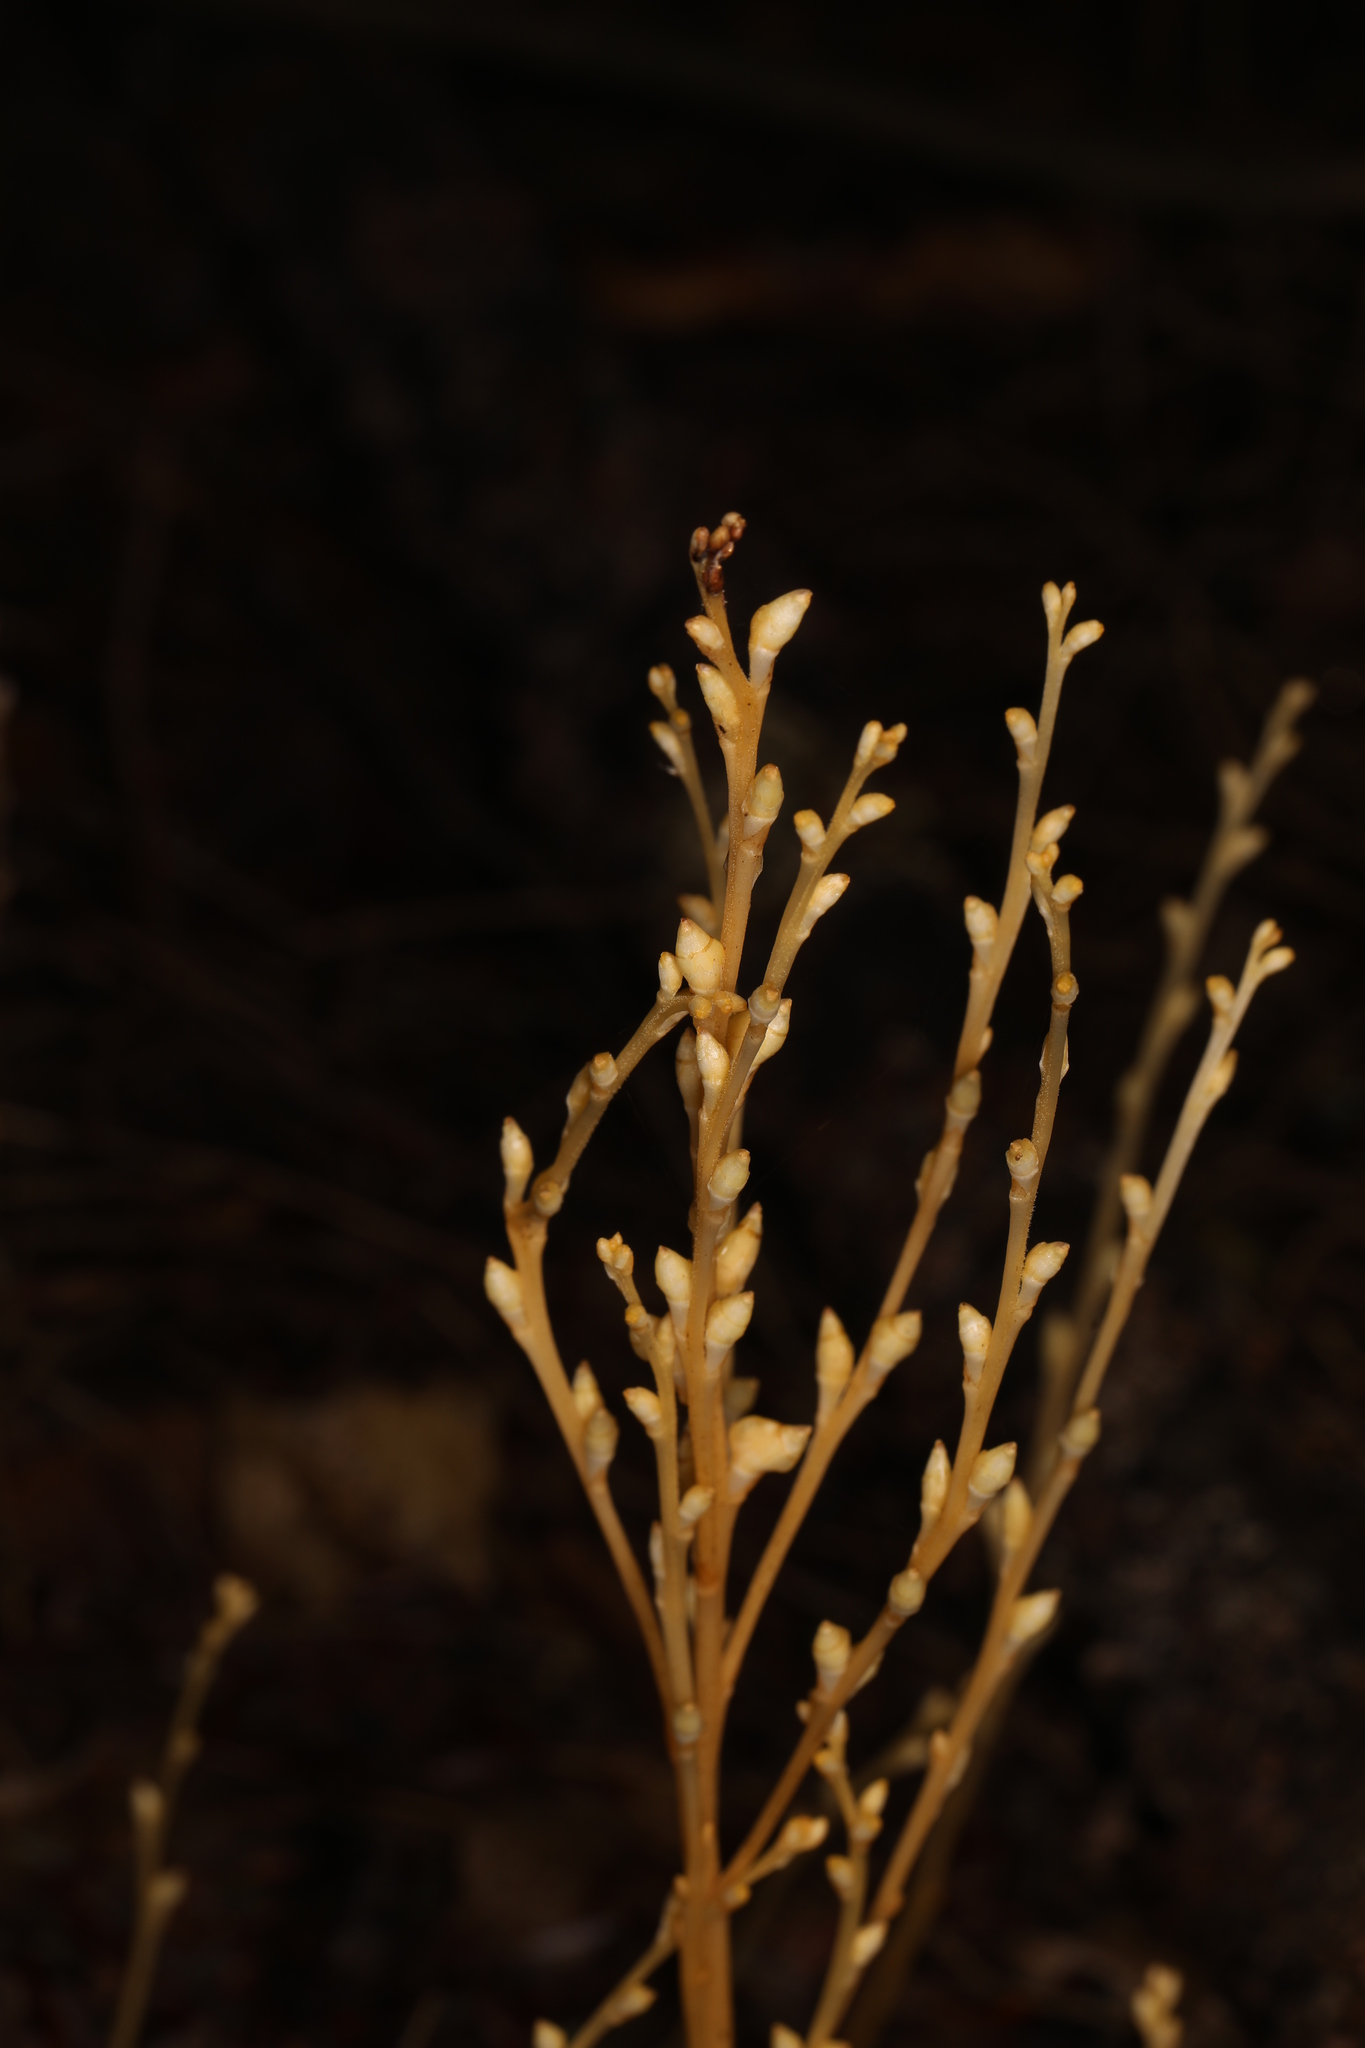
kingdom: Plantae
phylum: Tracheophyta
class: Magnoliopsida
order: Lamiales
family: Orobanchaceae
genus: Epifagus
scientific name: Epifagus virginiana
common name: Beechdrops
